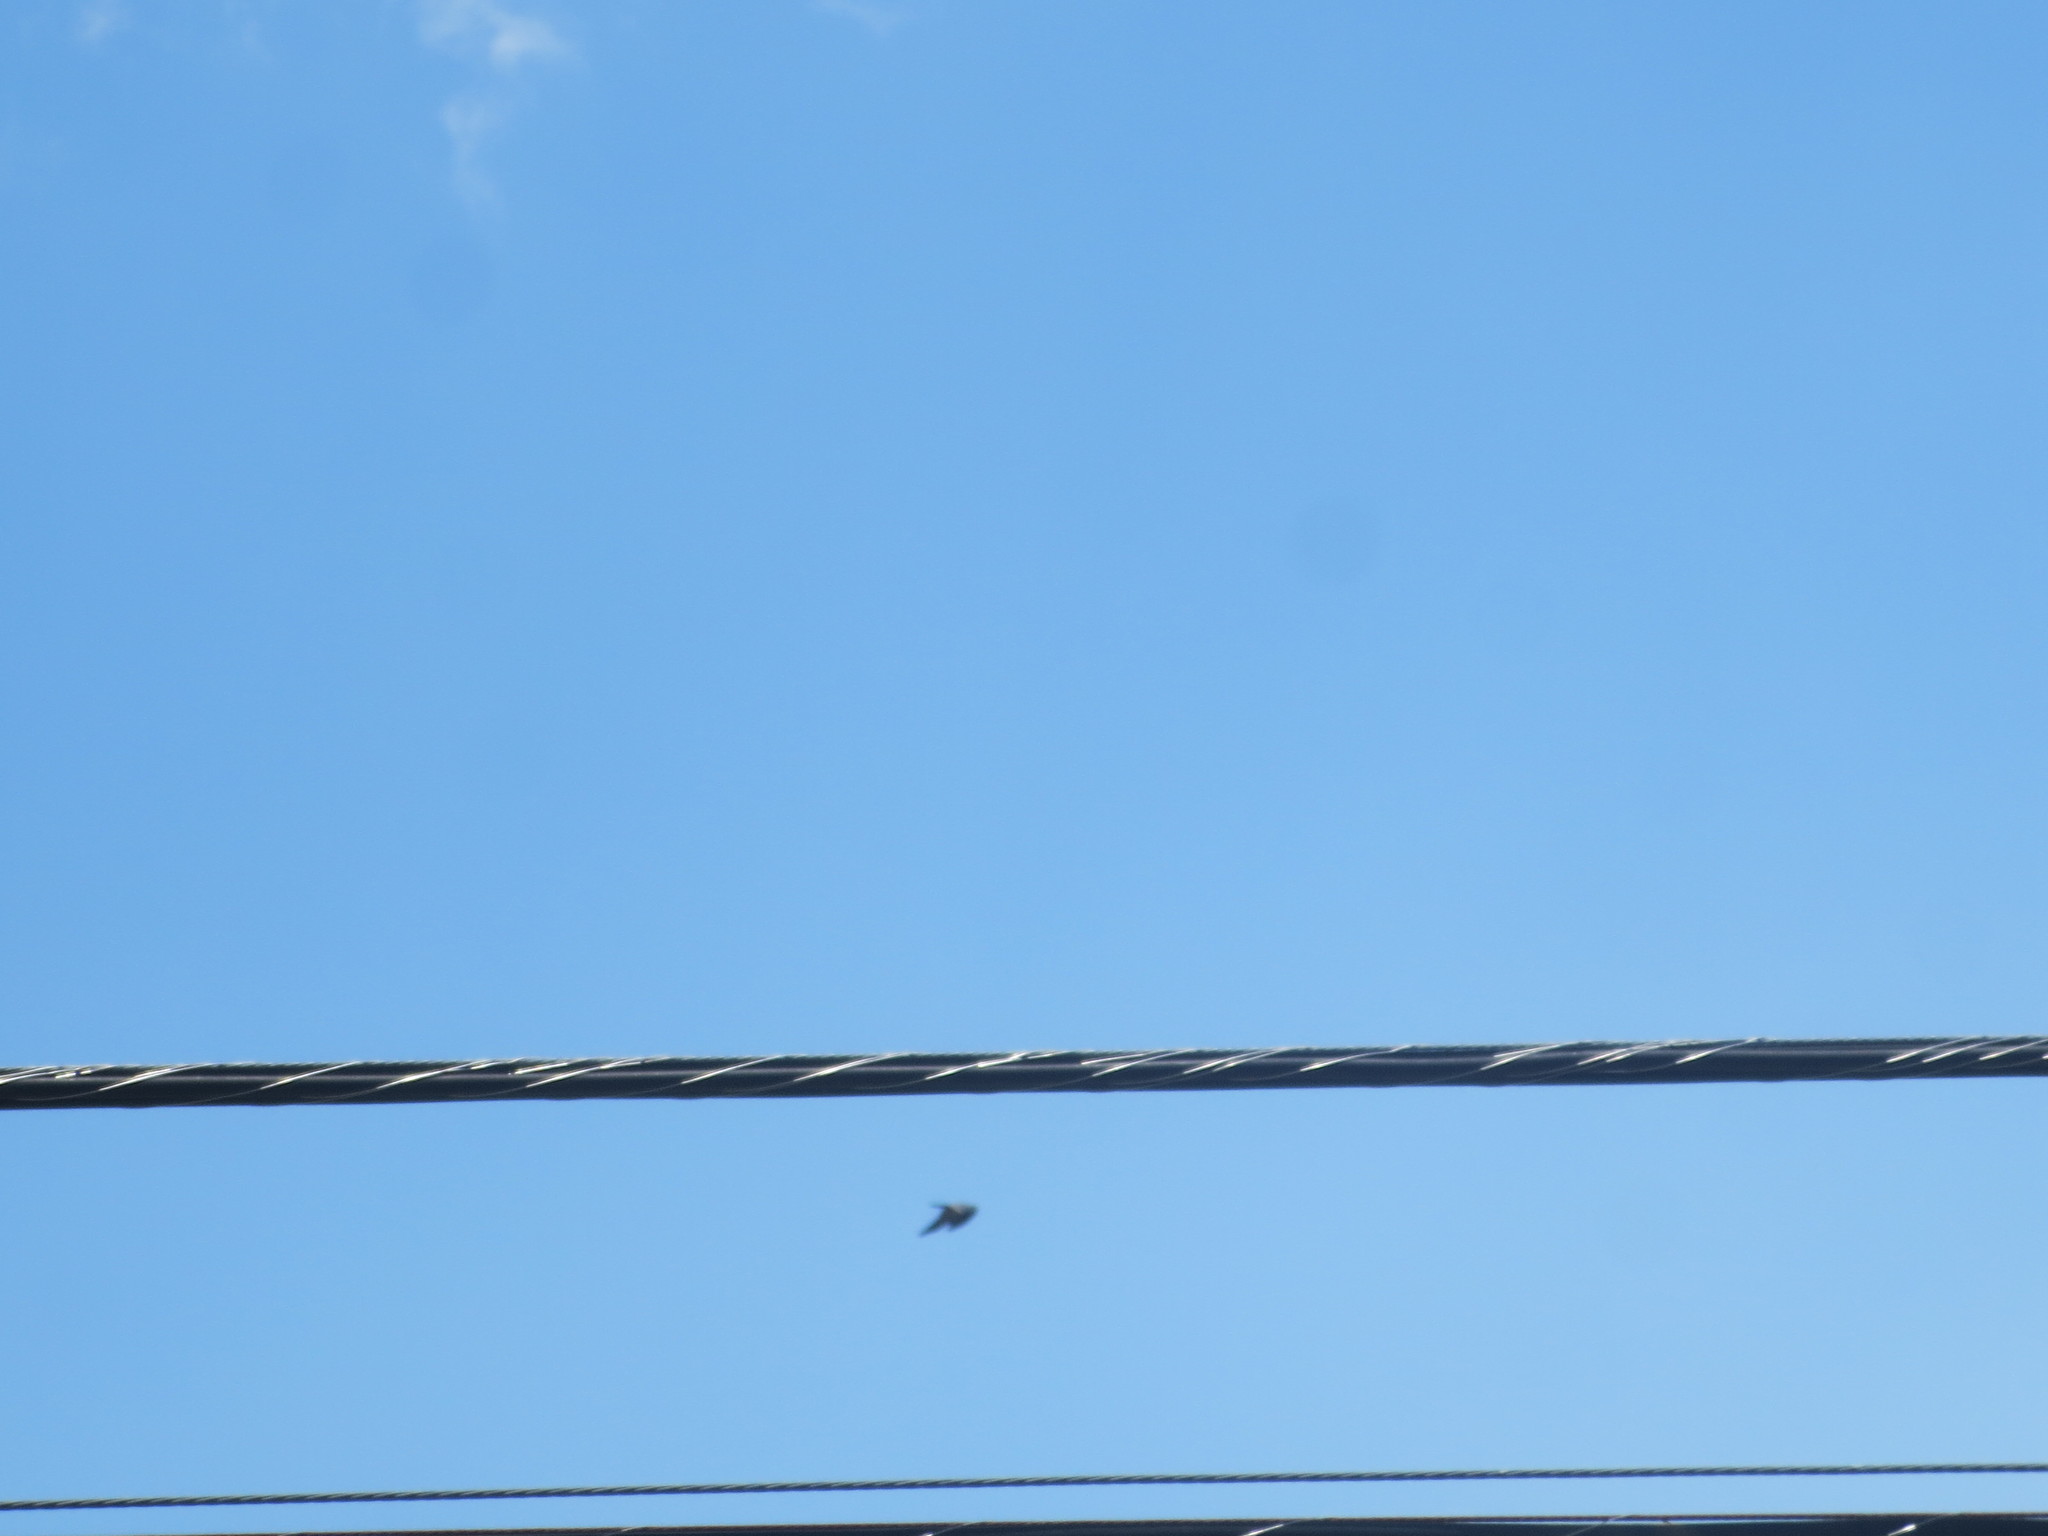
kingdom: Animalia
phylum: Chordata
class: Aves
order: Accipitriformes
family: Accipitridae
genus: Ictinia
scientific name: Ictinia mississippiensis
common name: Mississippi kite
